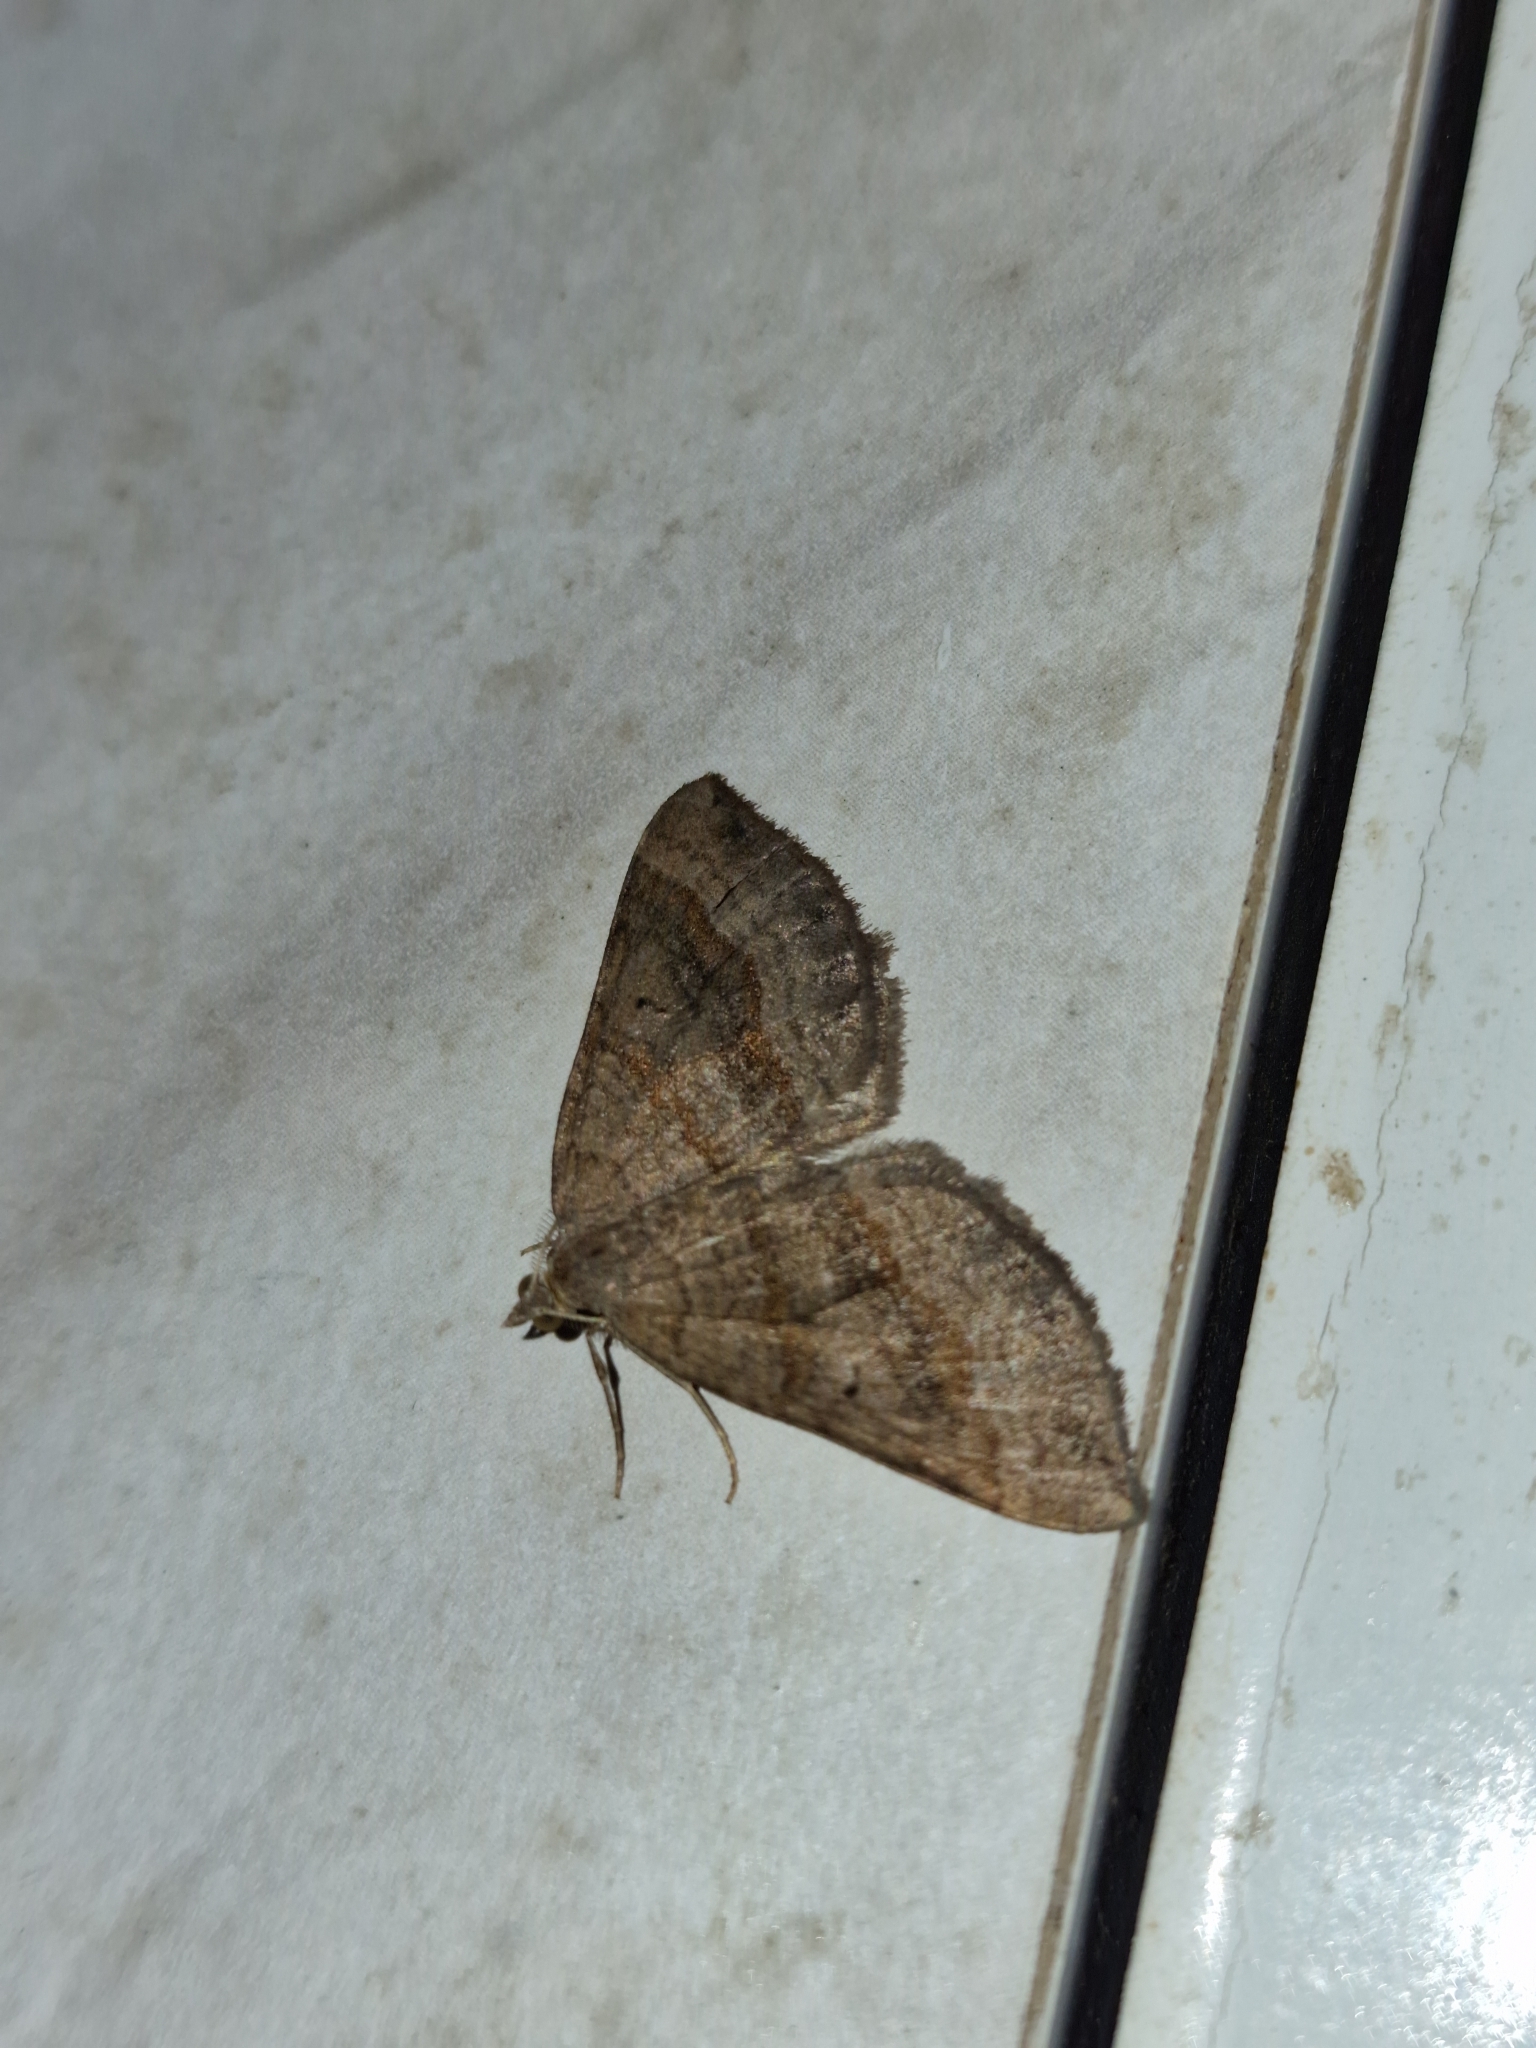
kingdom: Animalia
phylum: Arthropoda
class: Insecta
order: Lepidoptera
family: Geometridae
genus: Scotopteryx
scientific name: Scotopteryx chenopodiata
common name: Shaded broad-bar
